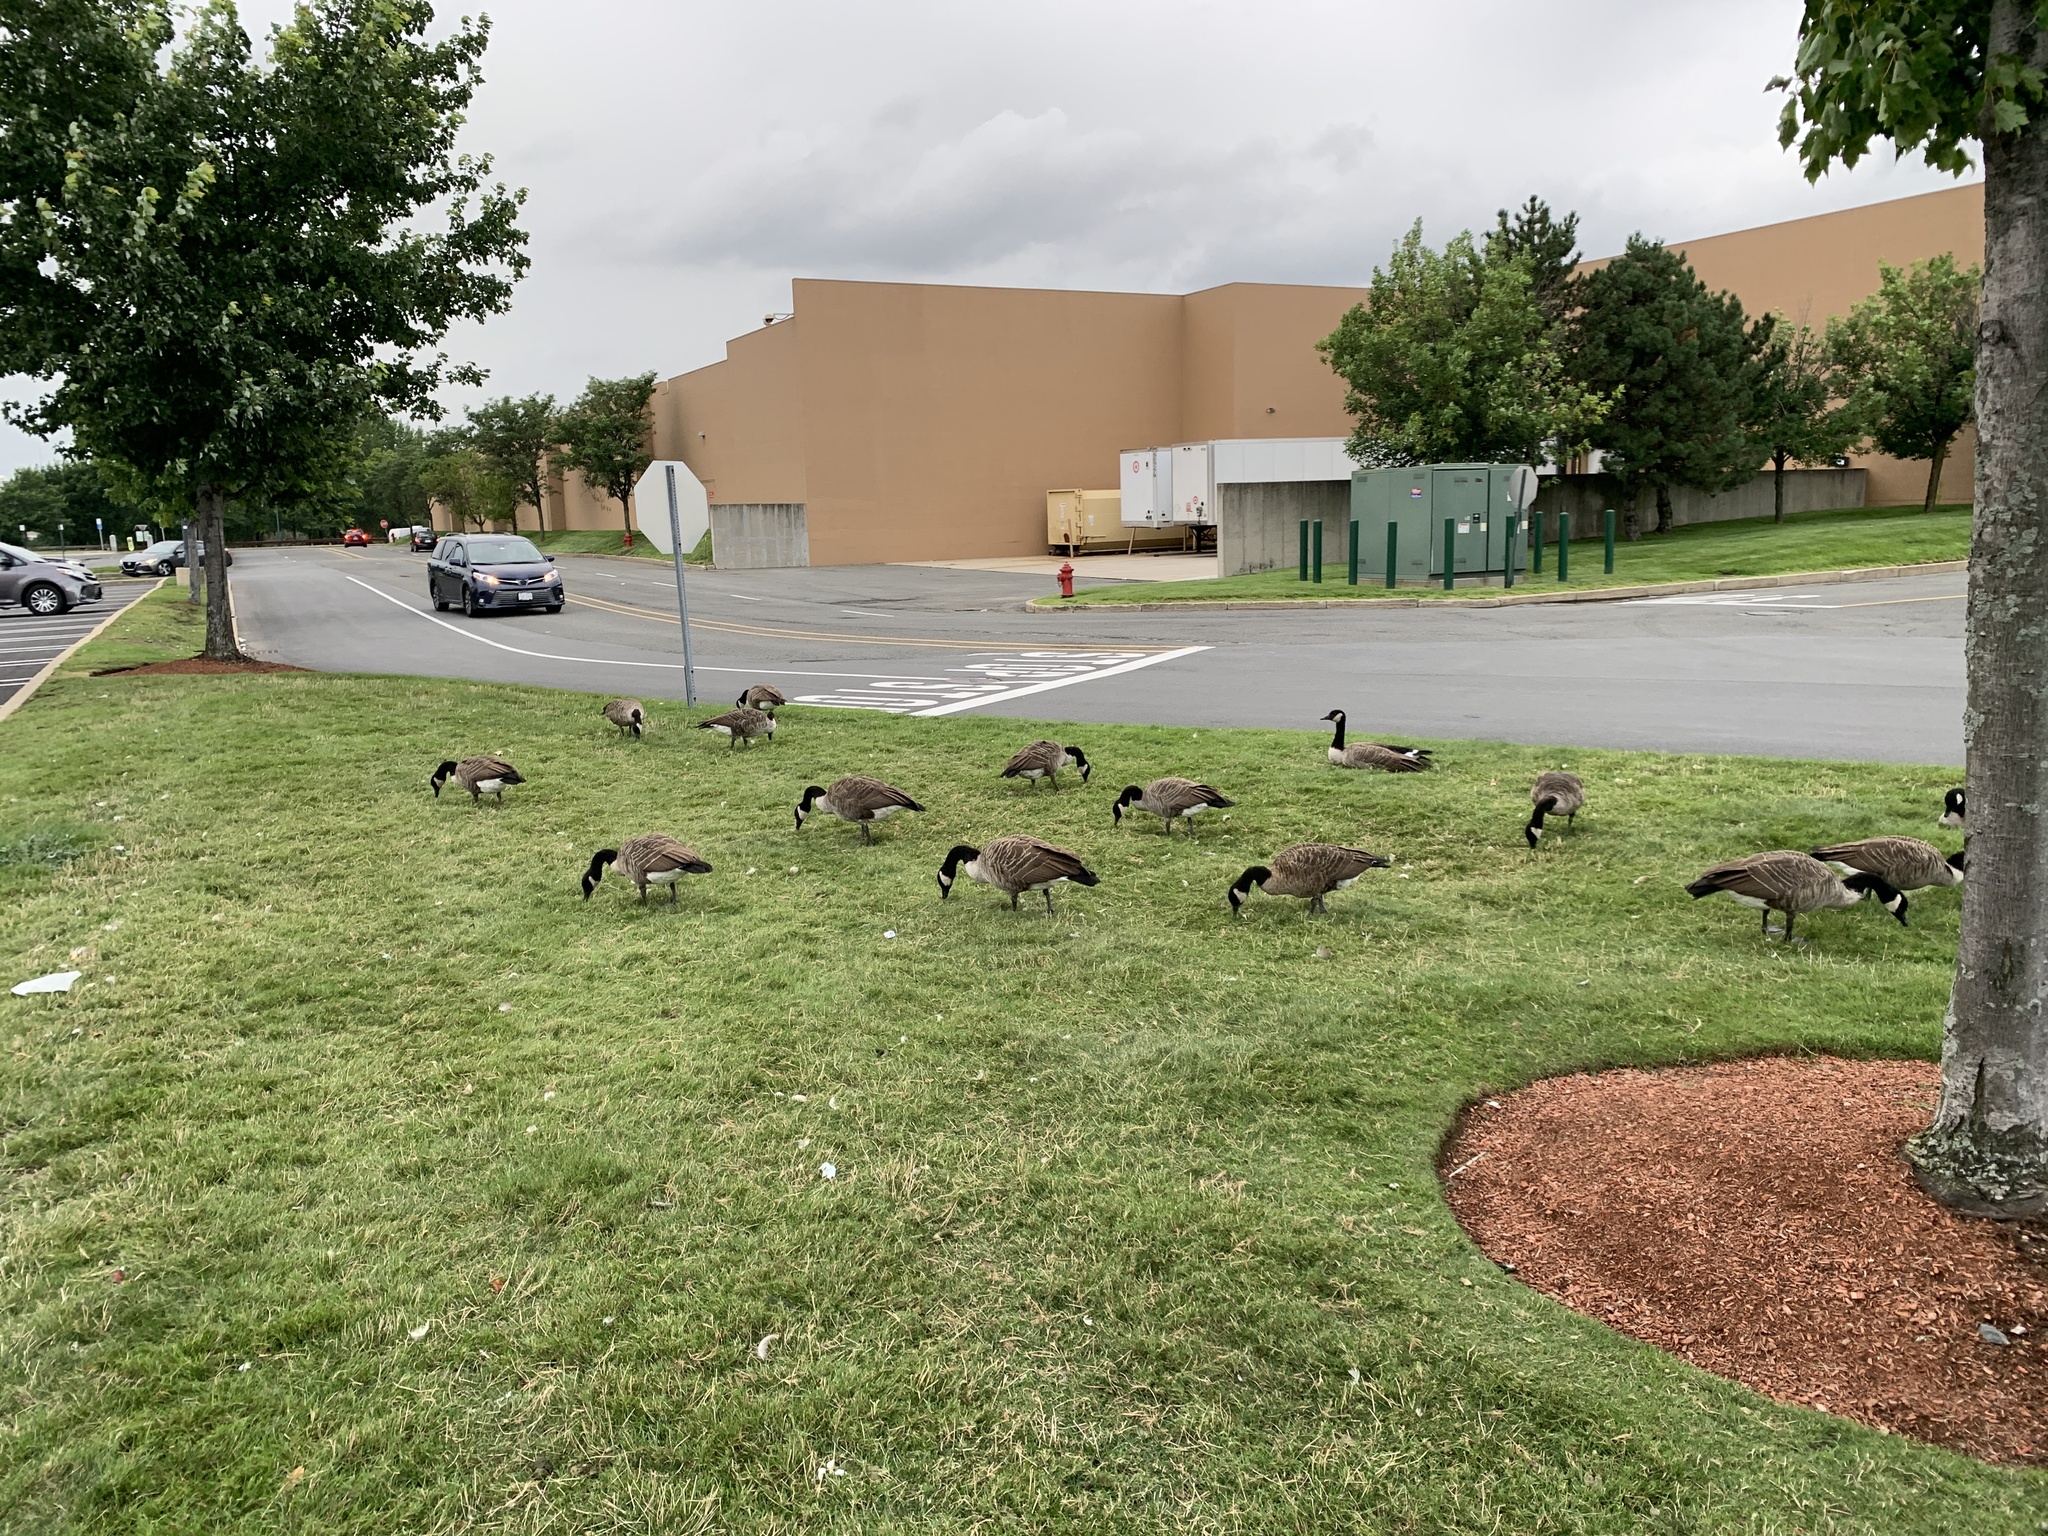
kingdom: Animalia
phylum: Chordata
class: Aves
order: Anseriformes
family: Anatidae
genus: Branta
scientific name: Branta canadensis
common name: Canada goose
